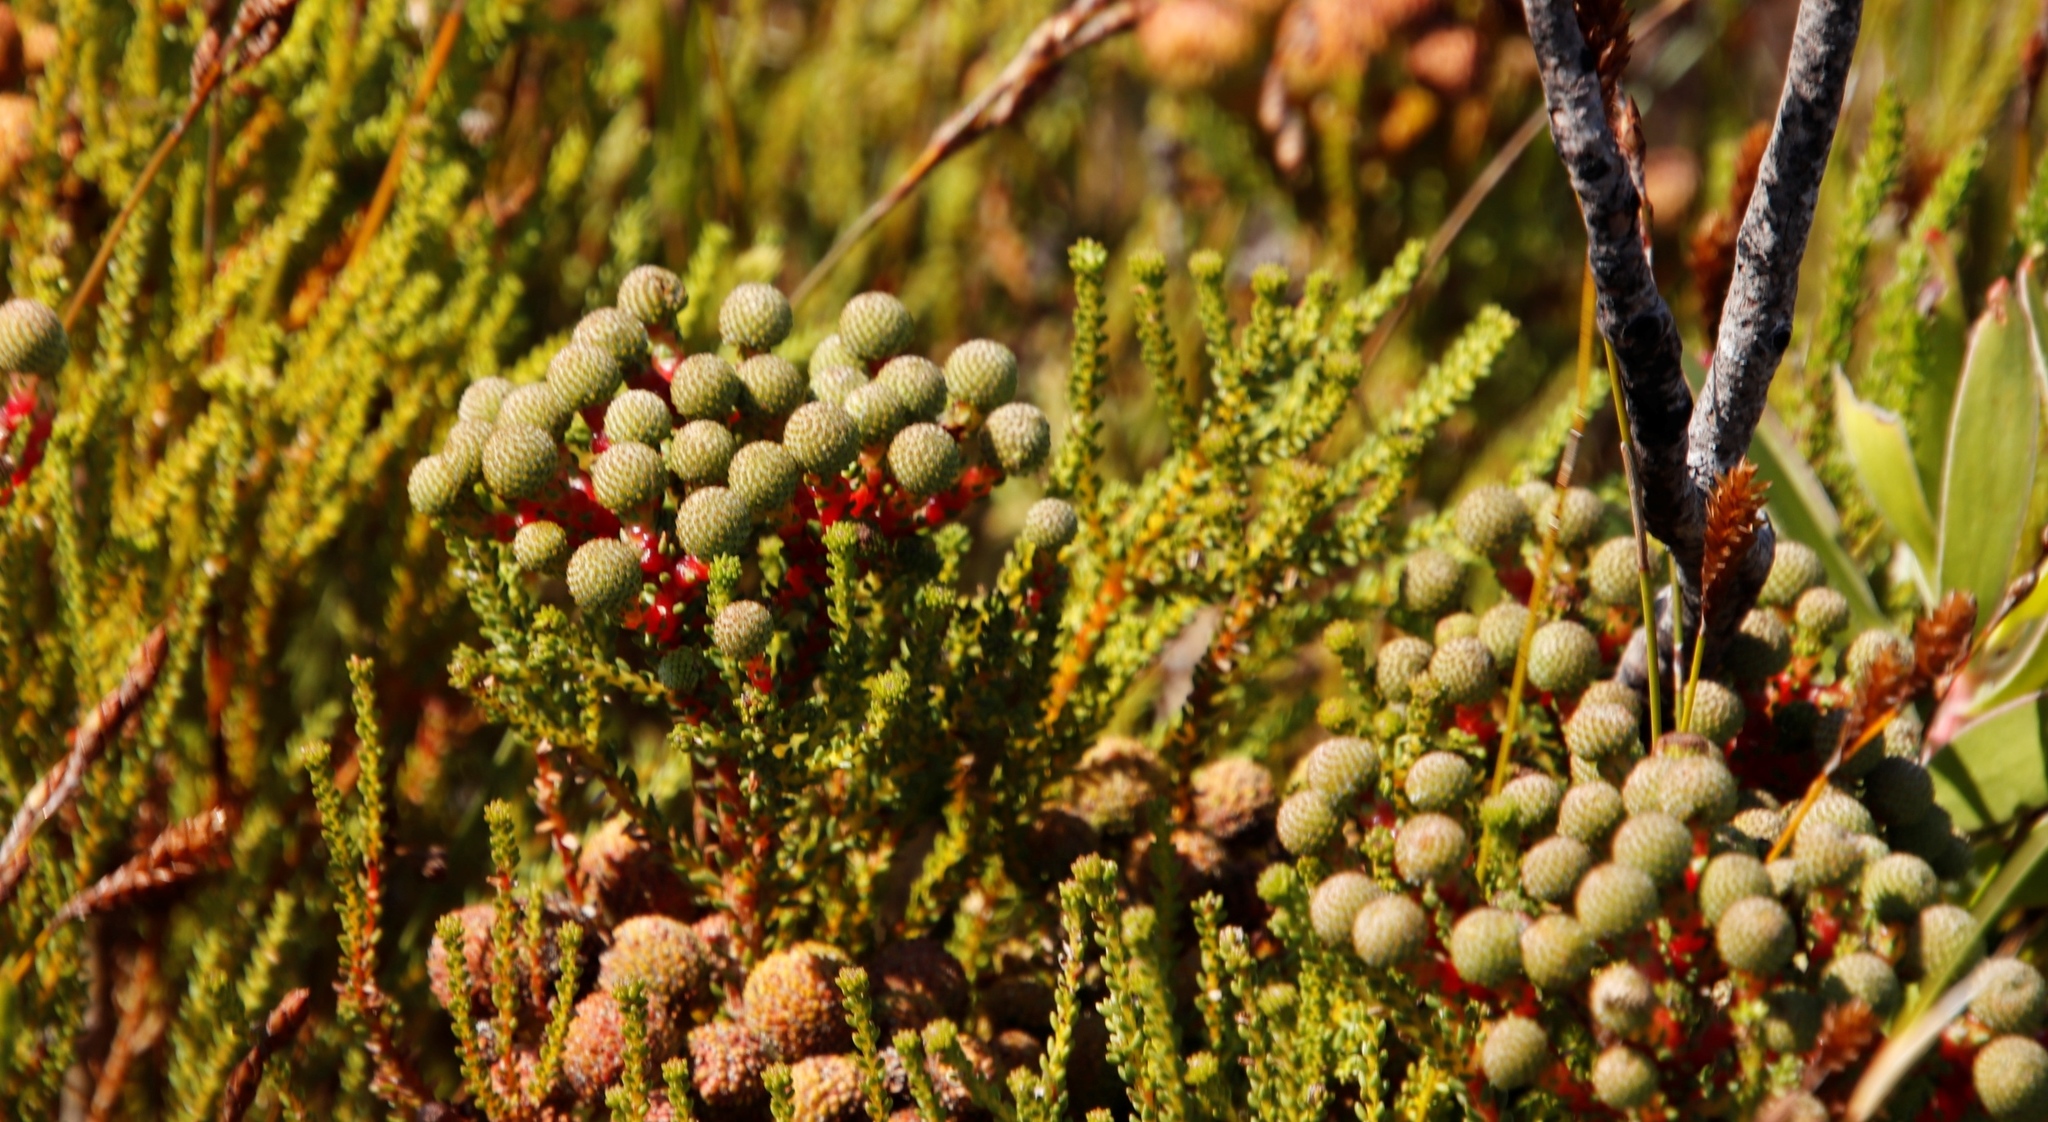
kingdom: Plantae
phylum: Tracheophyta
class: Magnoliopsida
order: Bruniales
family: Bruniaceae
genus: Berzelia
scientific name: Berzelia abrotanoides
